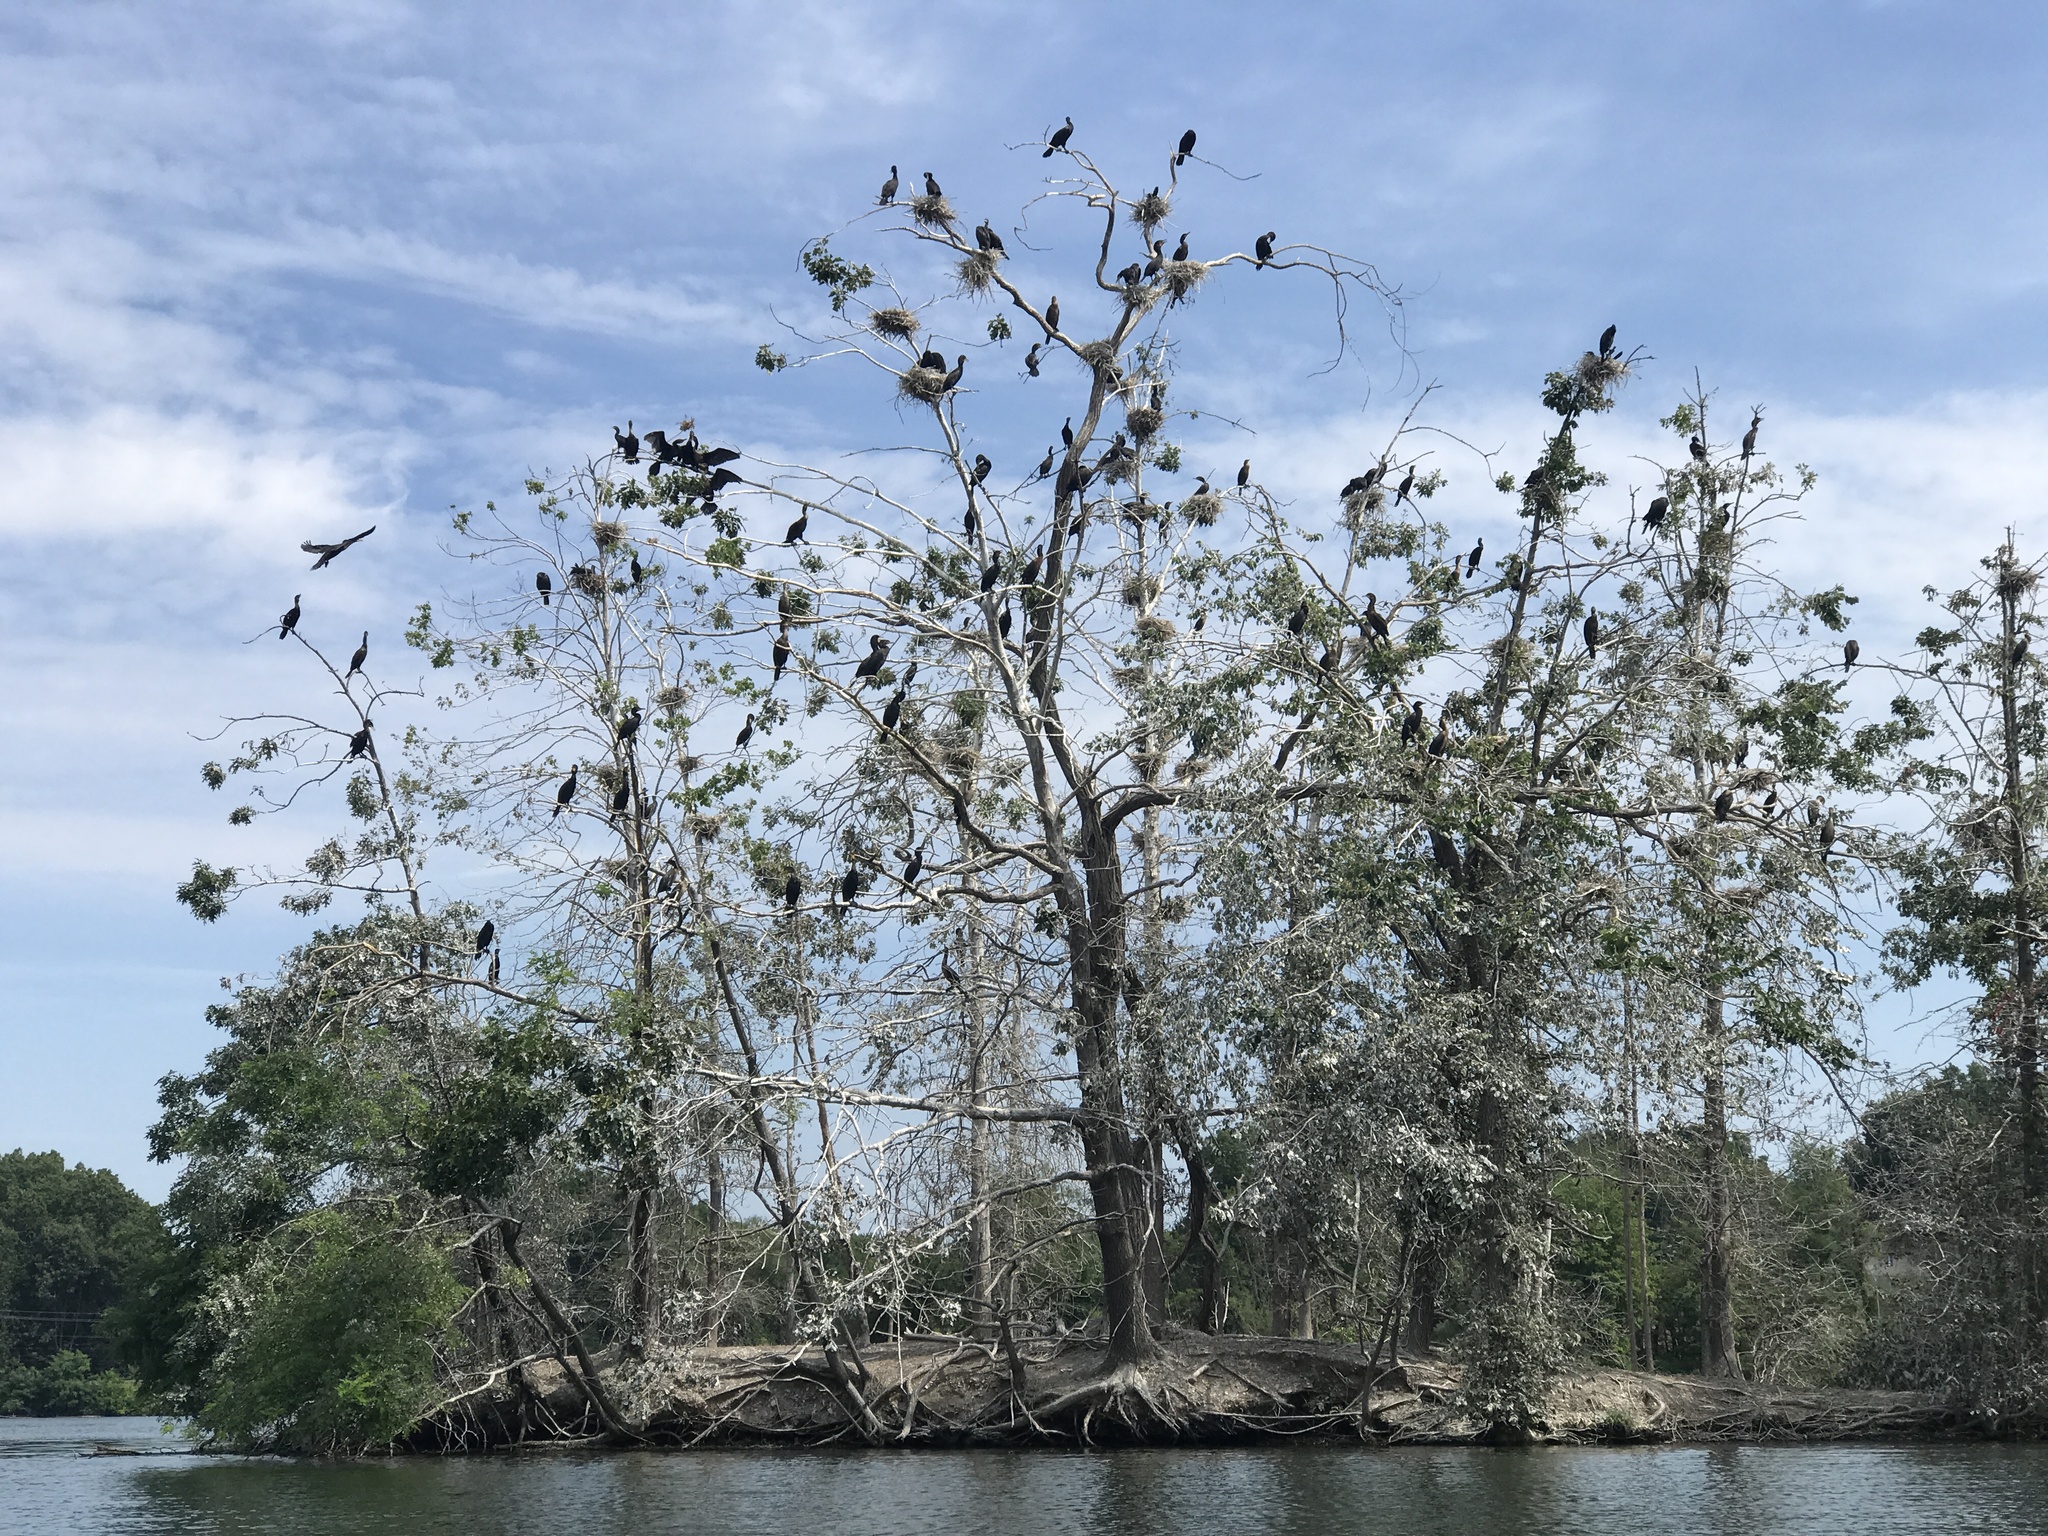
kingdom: Animalia
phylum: Chordata
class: Aves
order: Suliformes
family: Phalacrocoracidae
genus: Phalacrocorax
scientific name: Phalacrocorax auritus
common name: Double-crested cormorant
